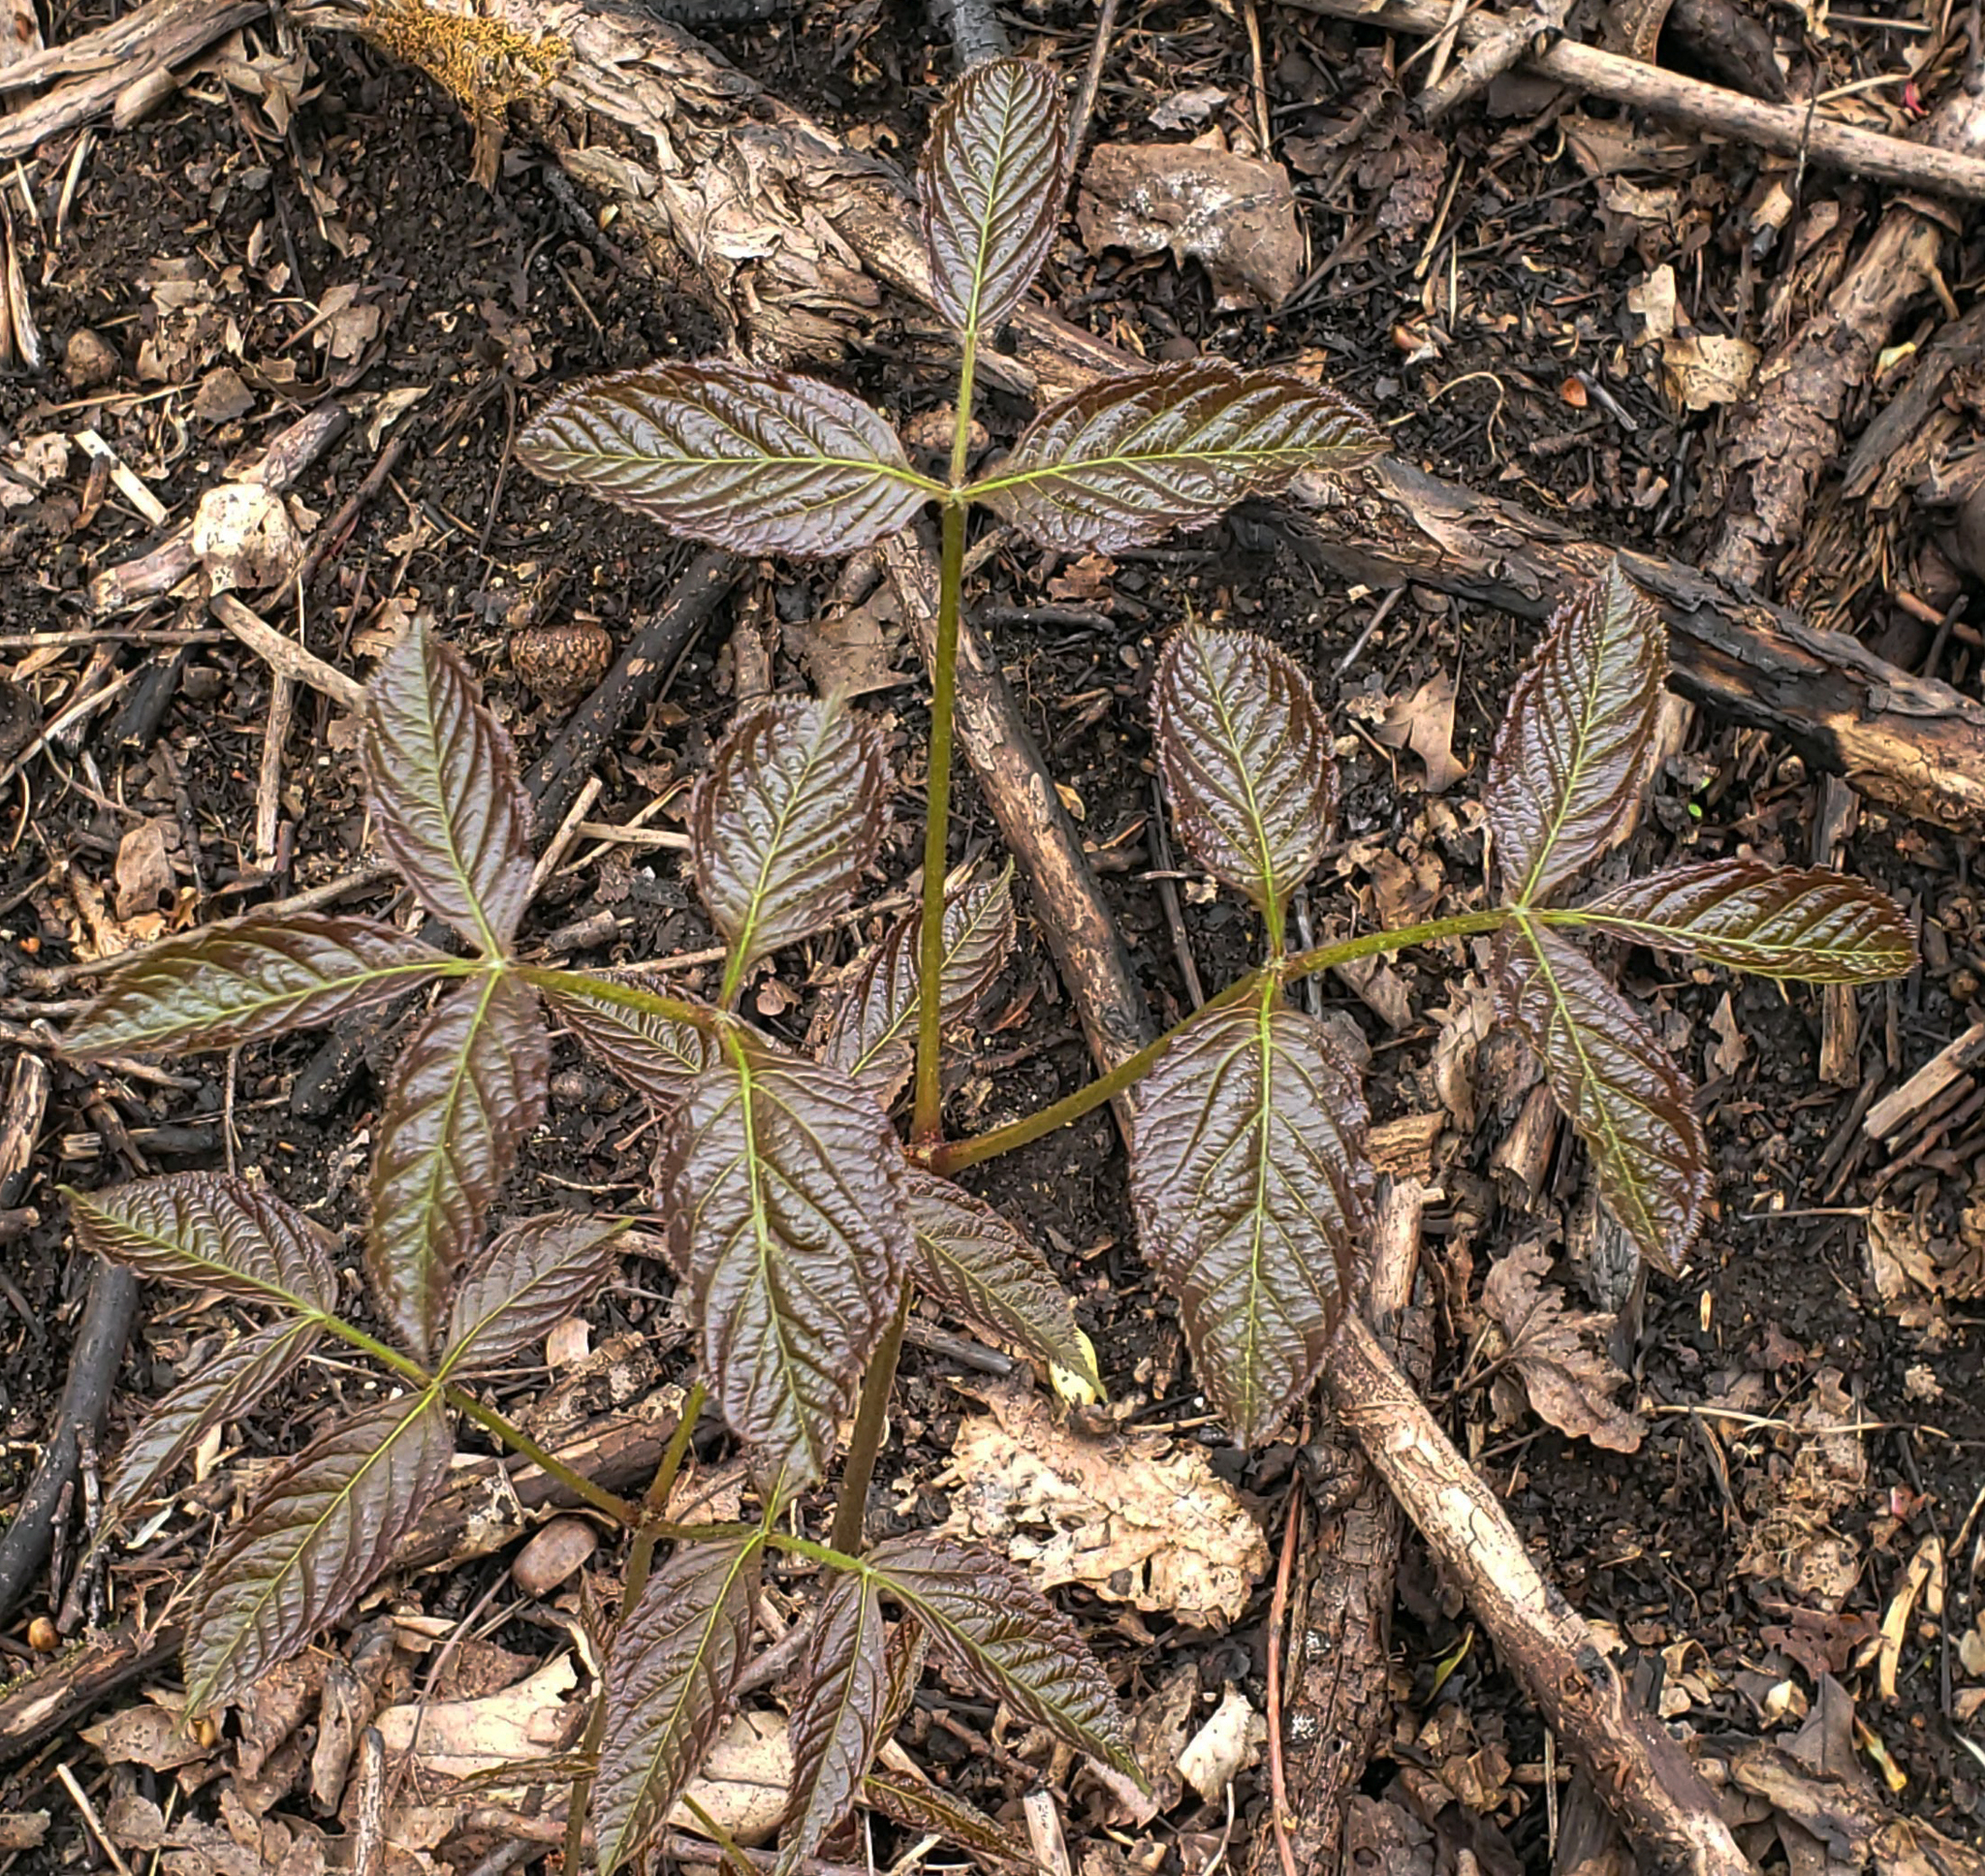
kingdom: Plantae
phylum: Tracheophyta
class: Magnoliopsida
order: Apiales
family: Araliaceae
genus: Aralia
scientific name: Aralia nudicaulis
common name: Wild sarsaparilla
